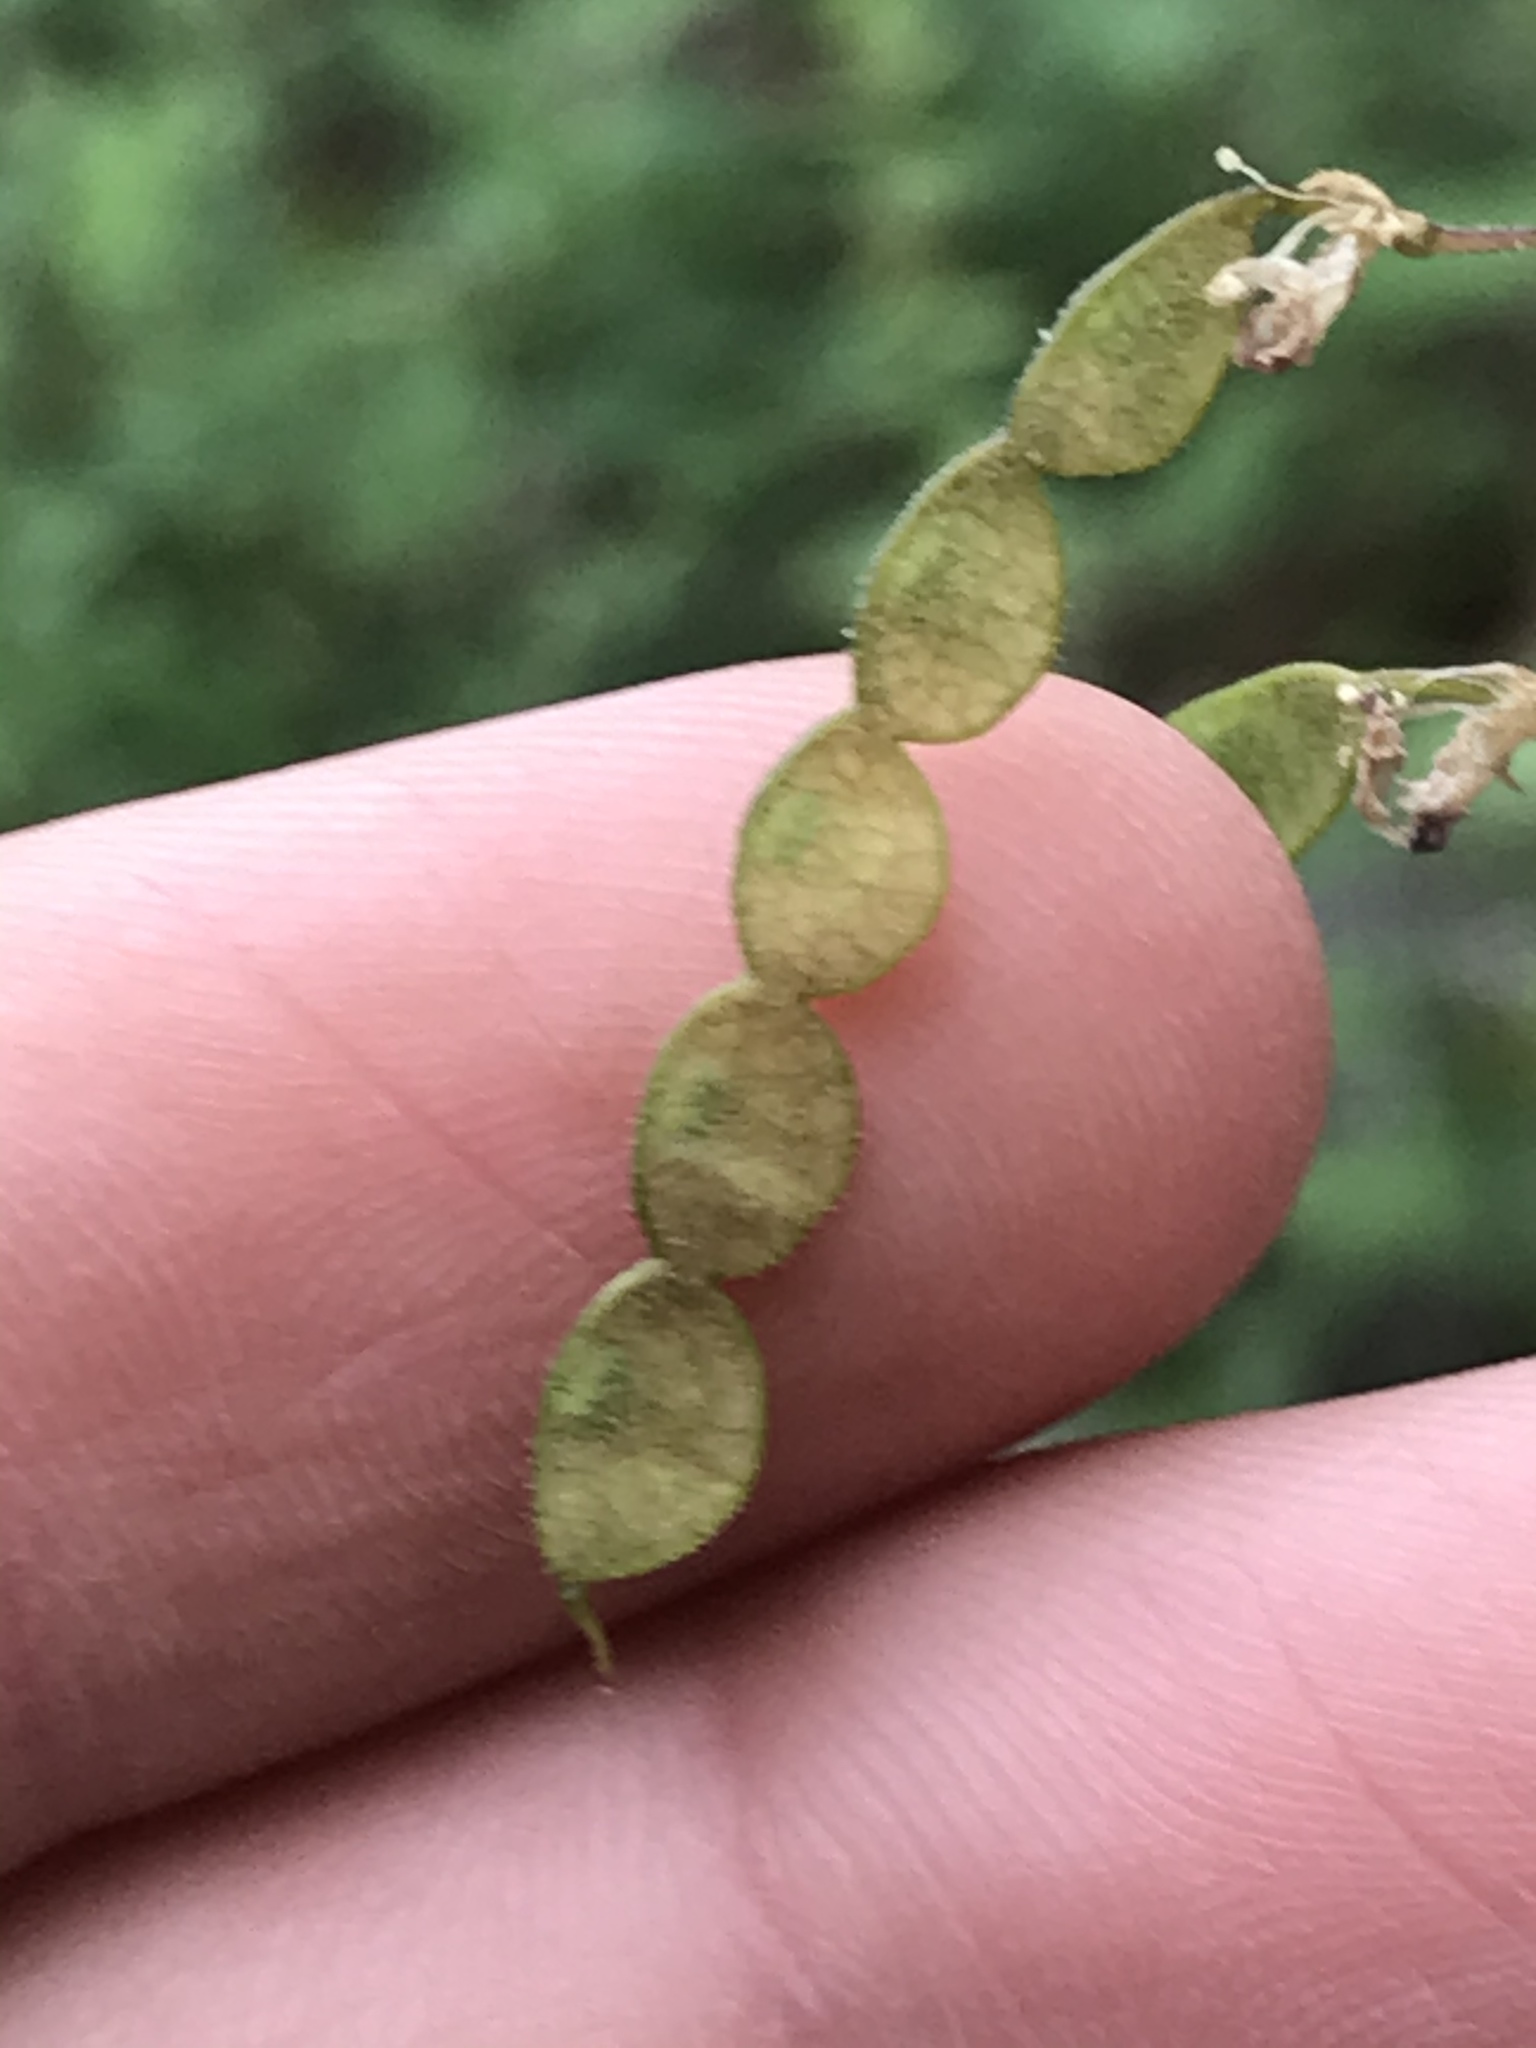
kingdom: Plantae
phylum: Tracheophyta
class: Magnoliopsida
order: Fabales
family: Fabaceae
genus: Desmodium
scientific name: Desmodium psilophyllum
